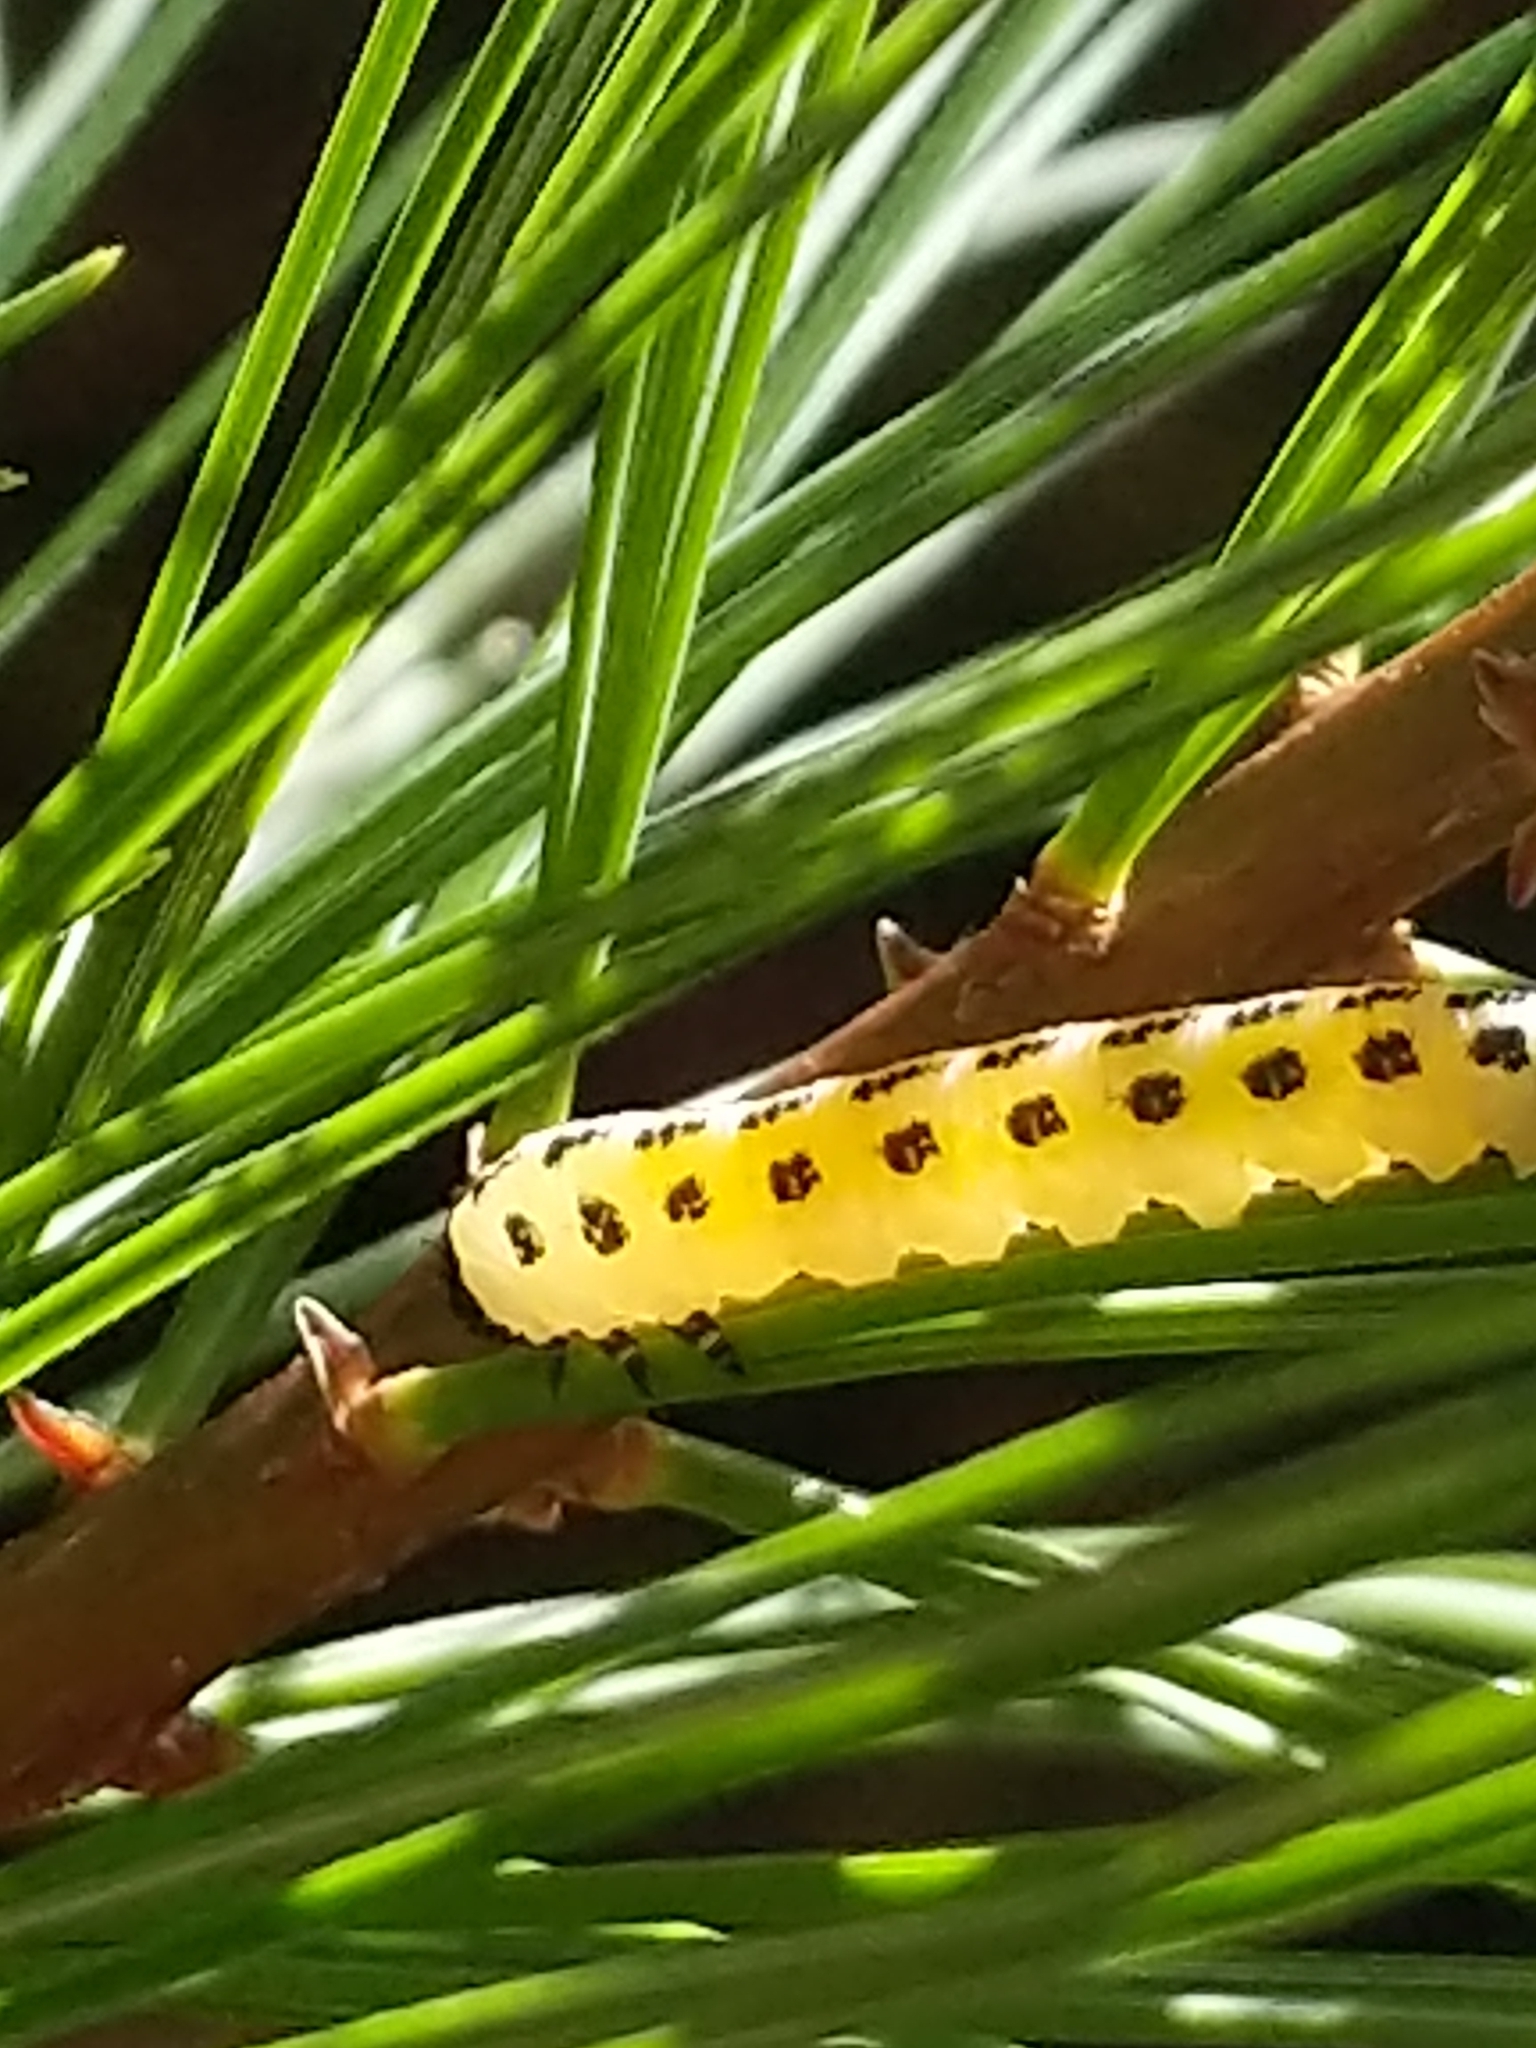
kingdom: Animalia
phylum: Arthropoda
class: Insecta
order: Hymenoptera
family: Diprionidae
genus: Neodiprion
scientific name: Neodiprion pinetum
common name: White pine sawfly
